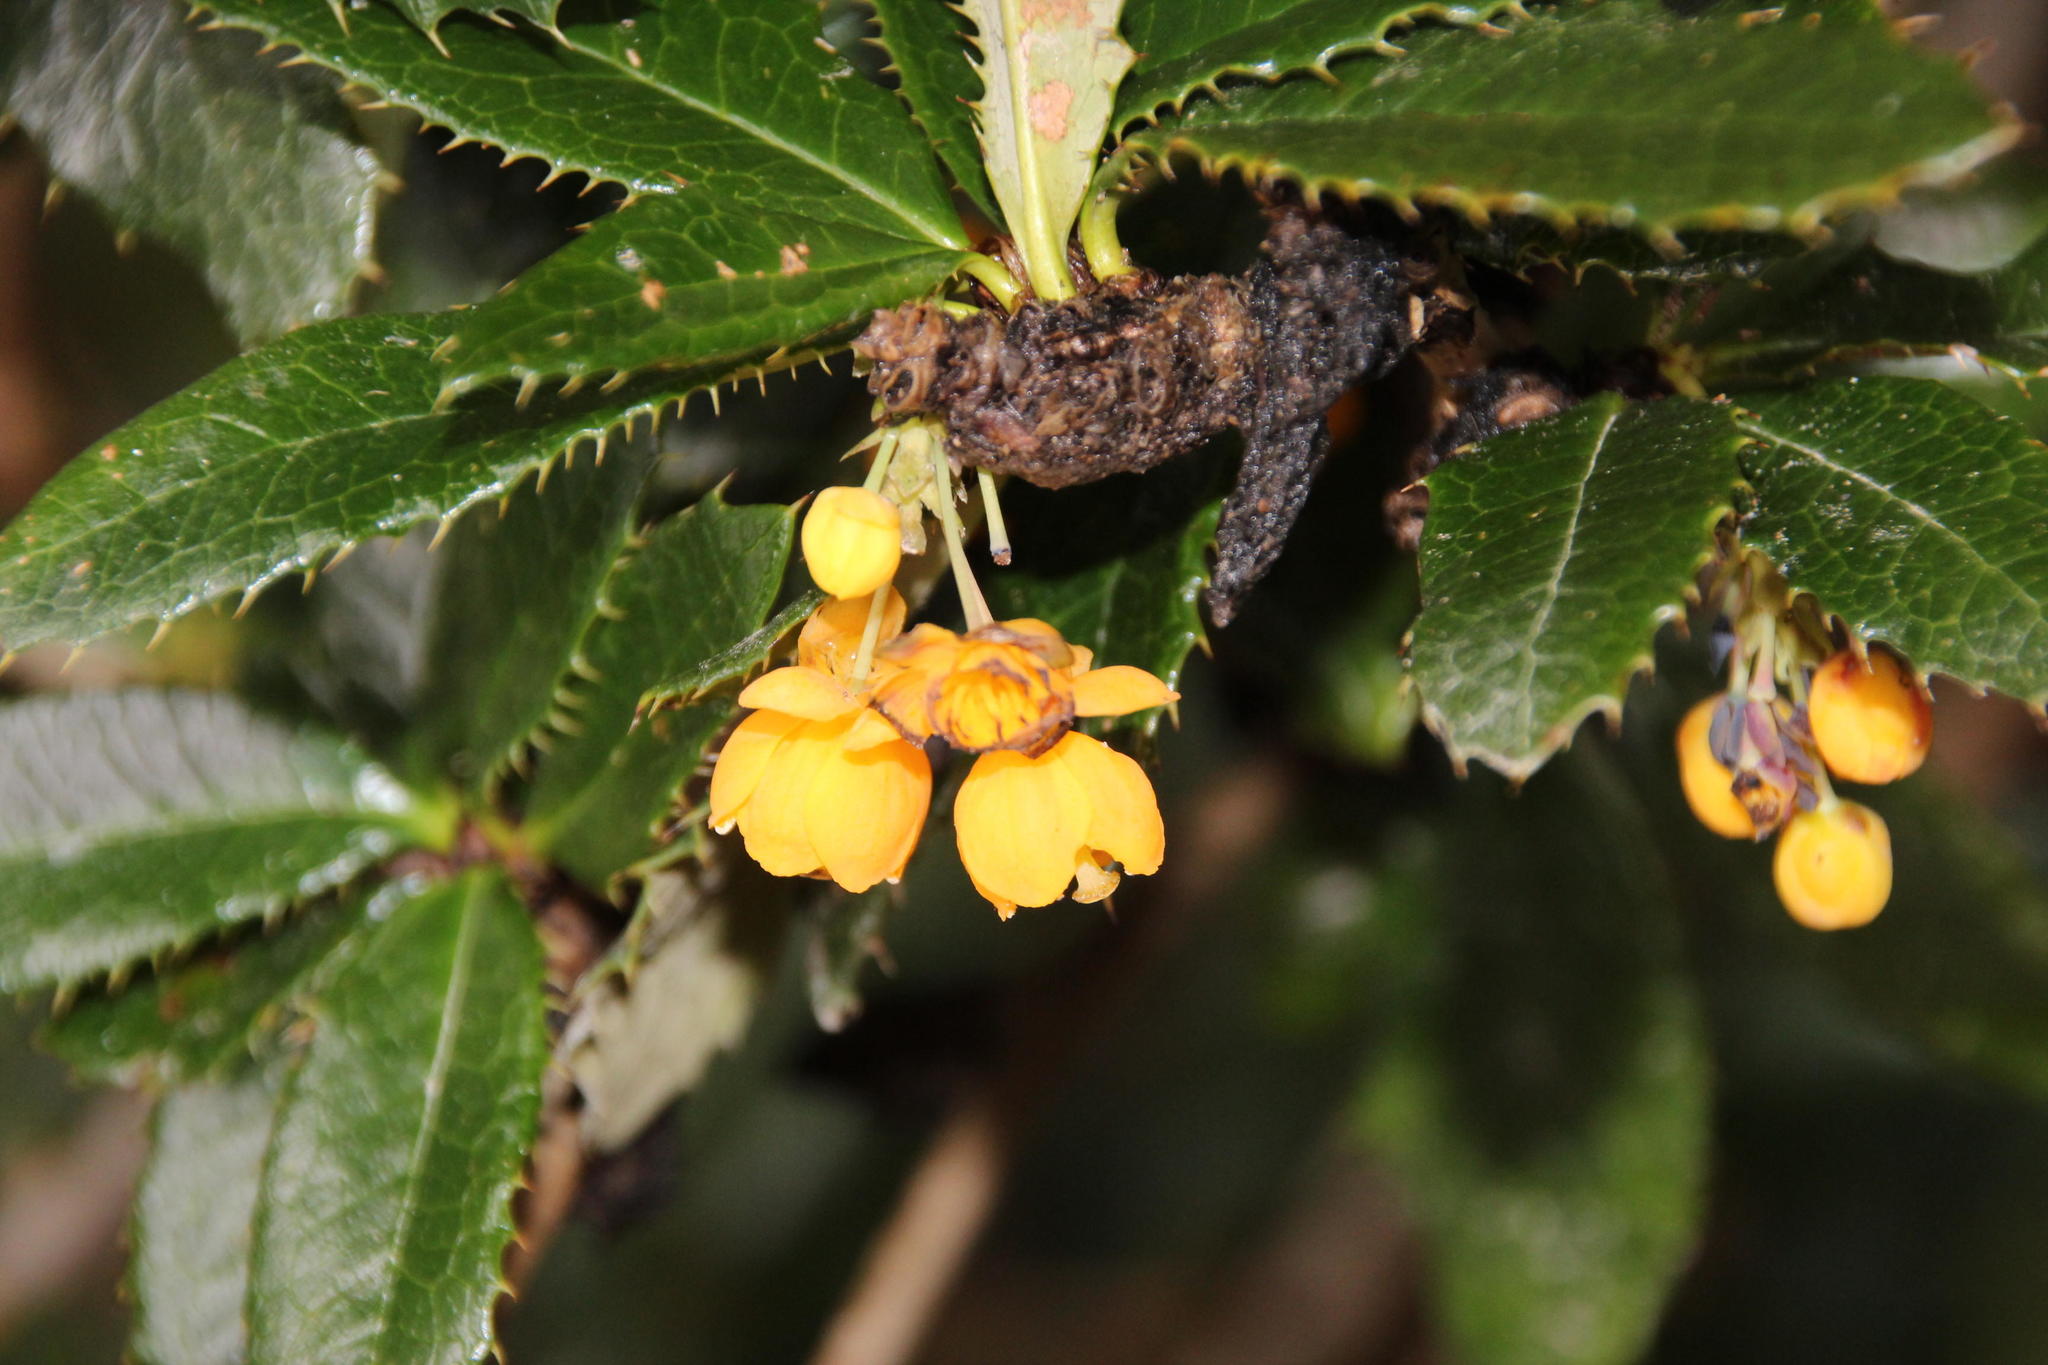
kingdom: Plantae
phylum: Tracheophyta
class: Magnoliopsida
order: Ranunculales
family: Berberidaceae
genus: Berberis
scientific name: Berberis pseudoilicifolia
